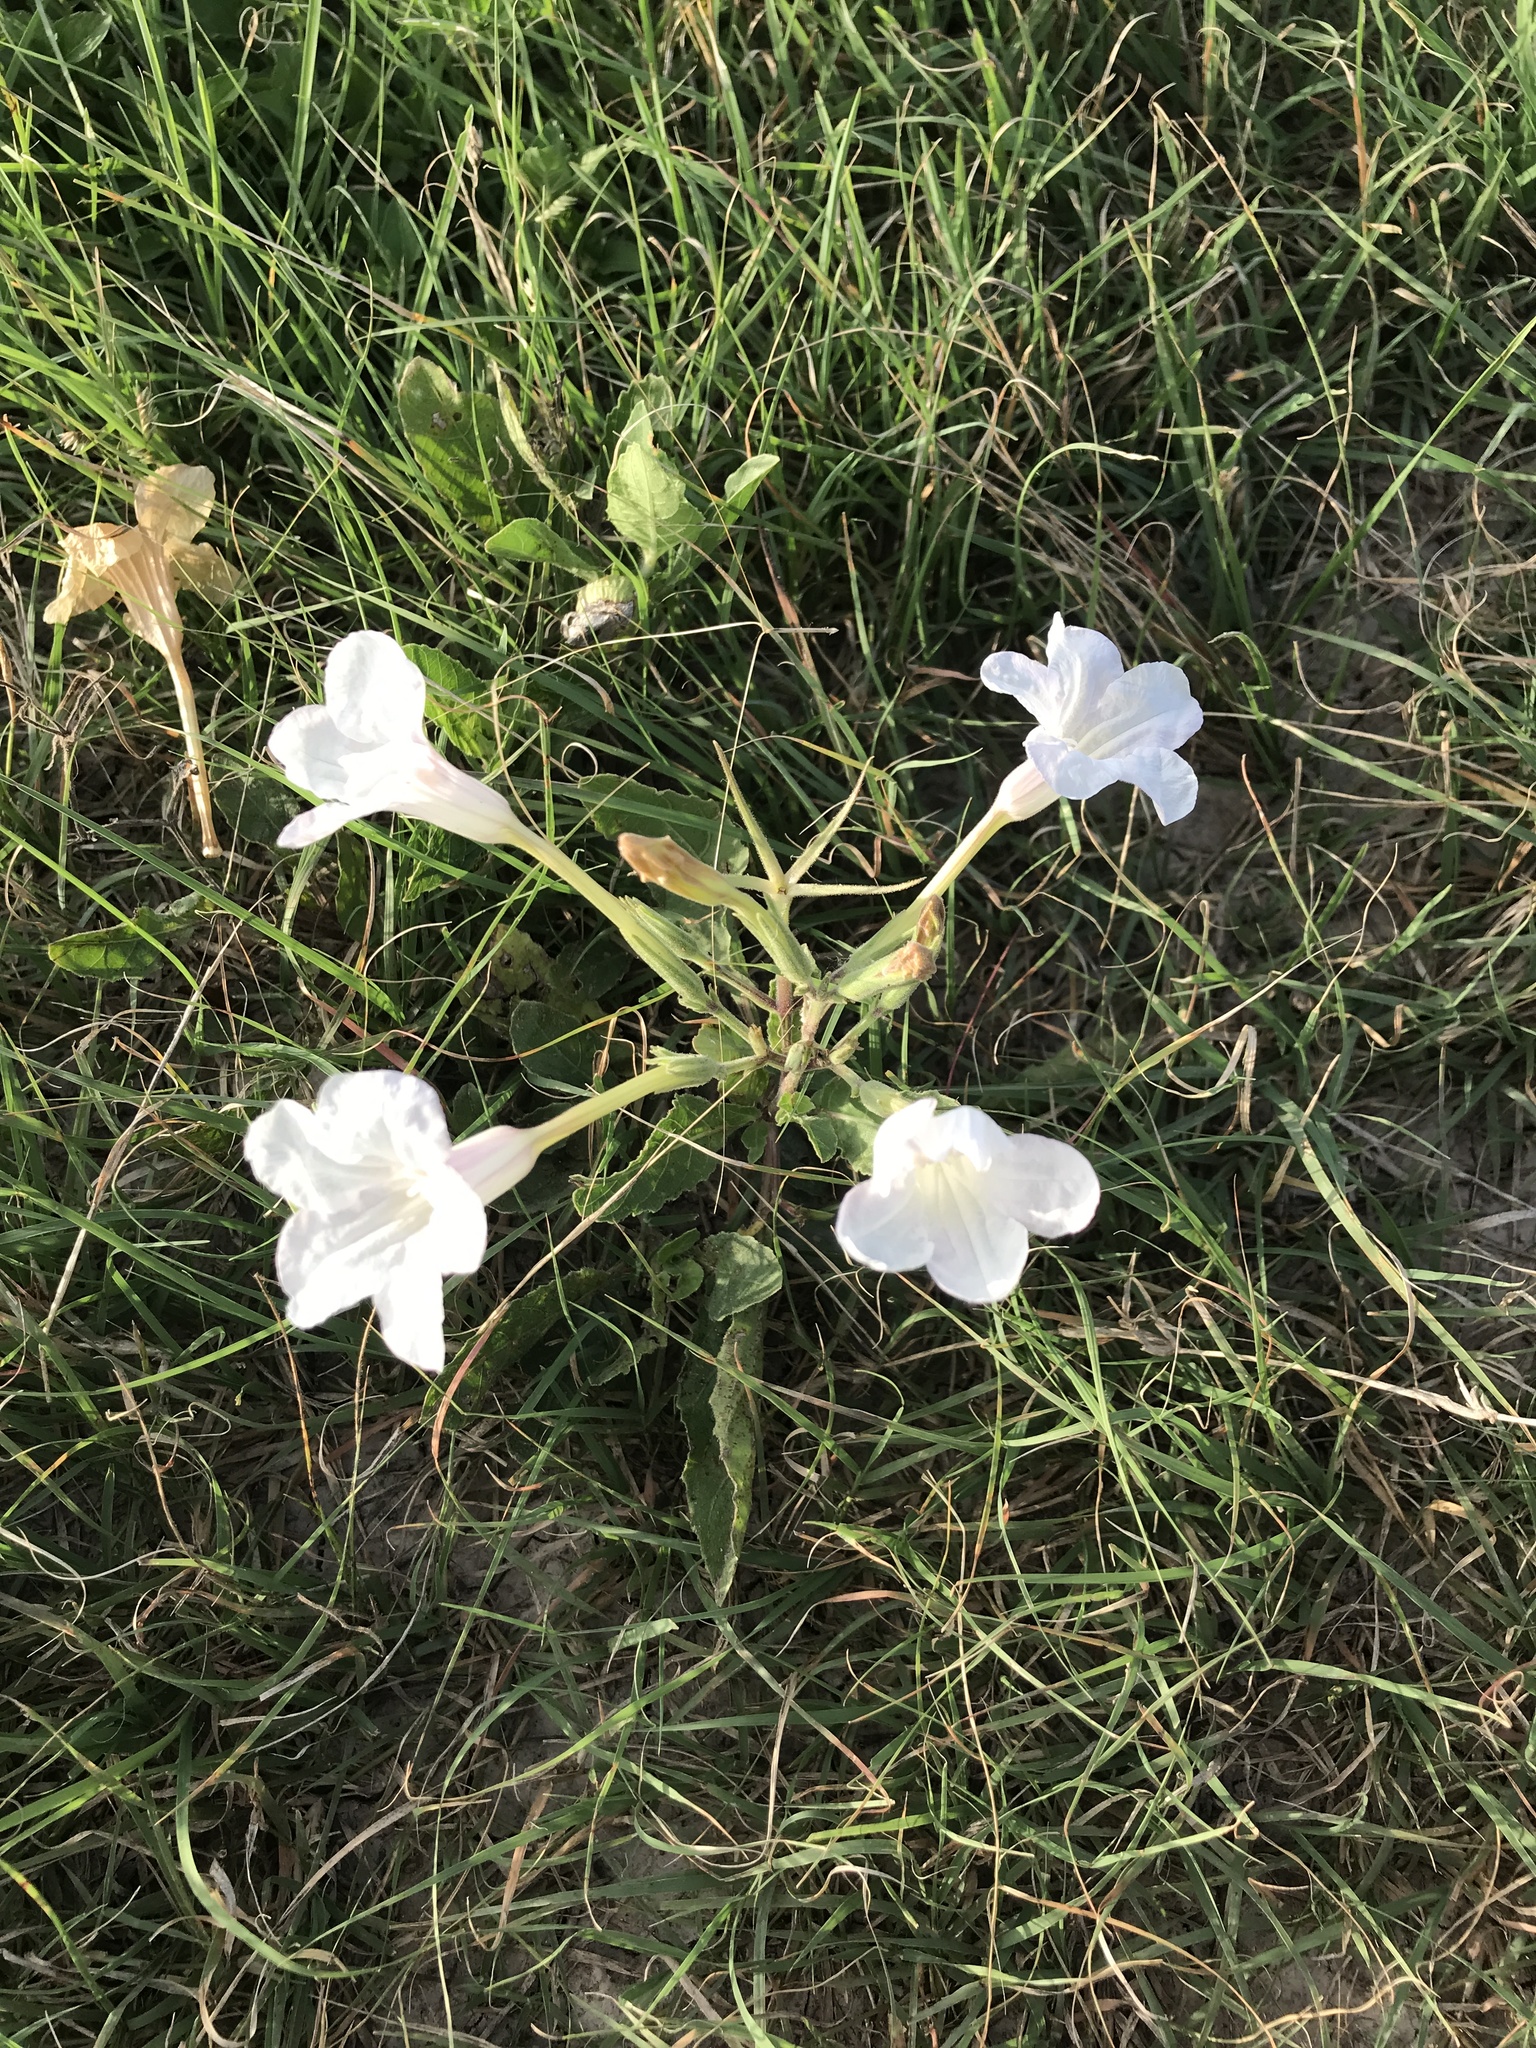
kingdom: Plantae
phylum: Tracheophyta
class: Magnoliopsida
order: Lamiales
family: Acanthaceae
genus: Ruellia
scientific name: Ruellia metziae
